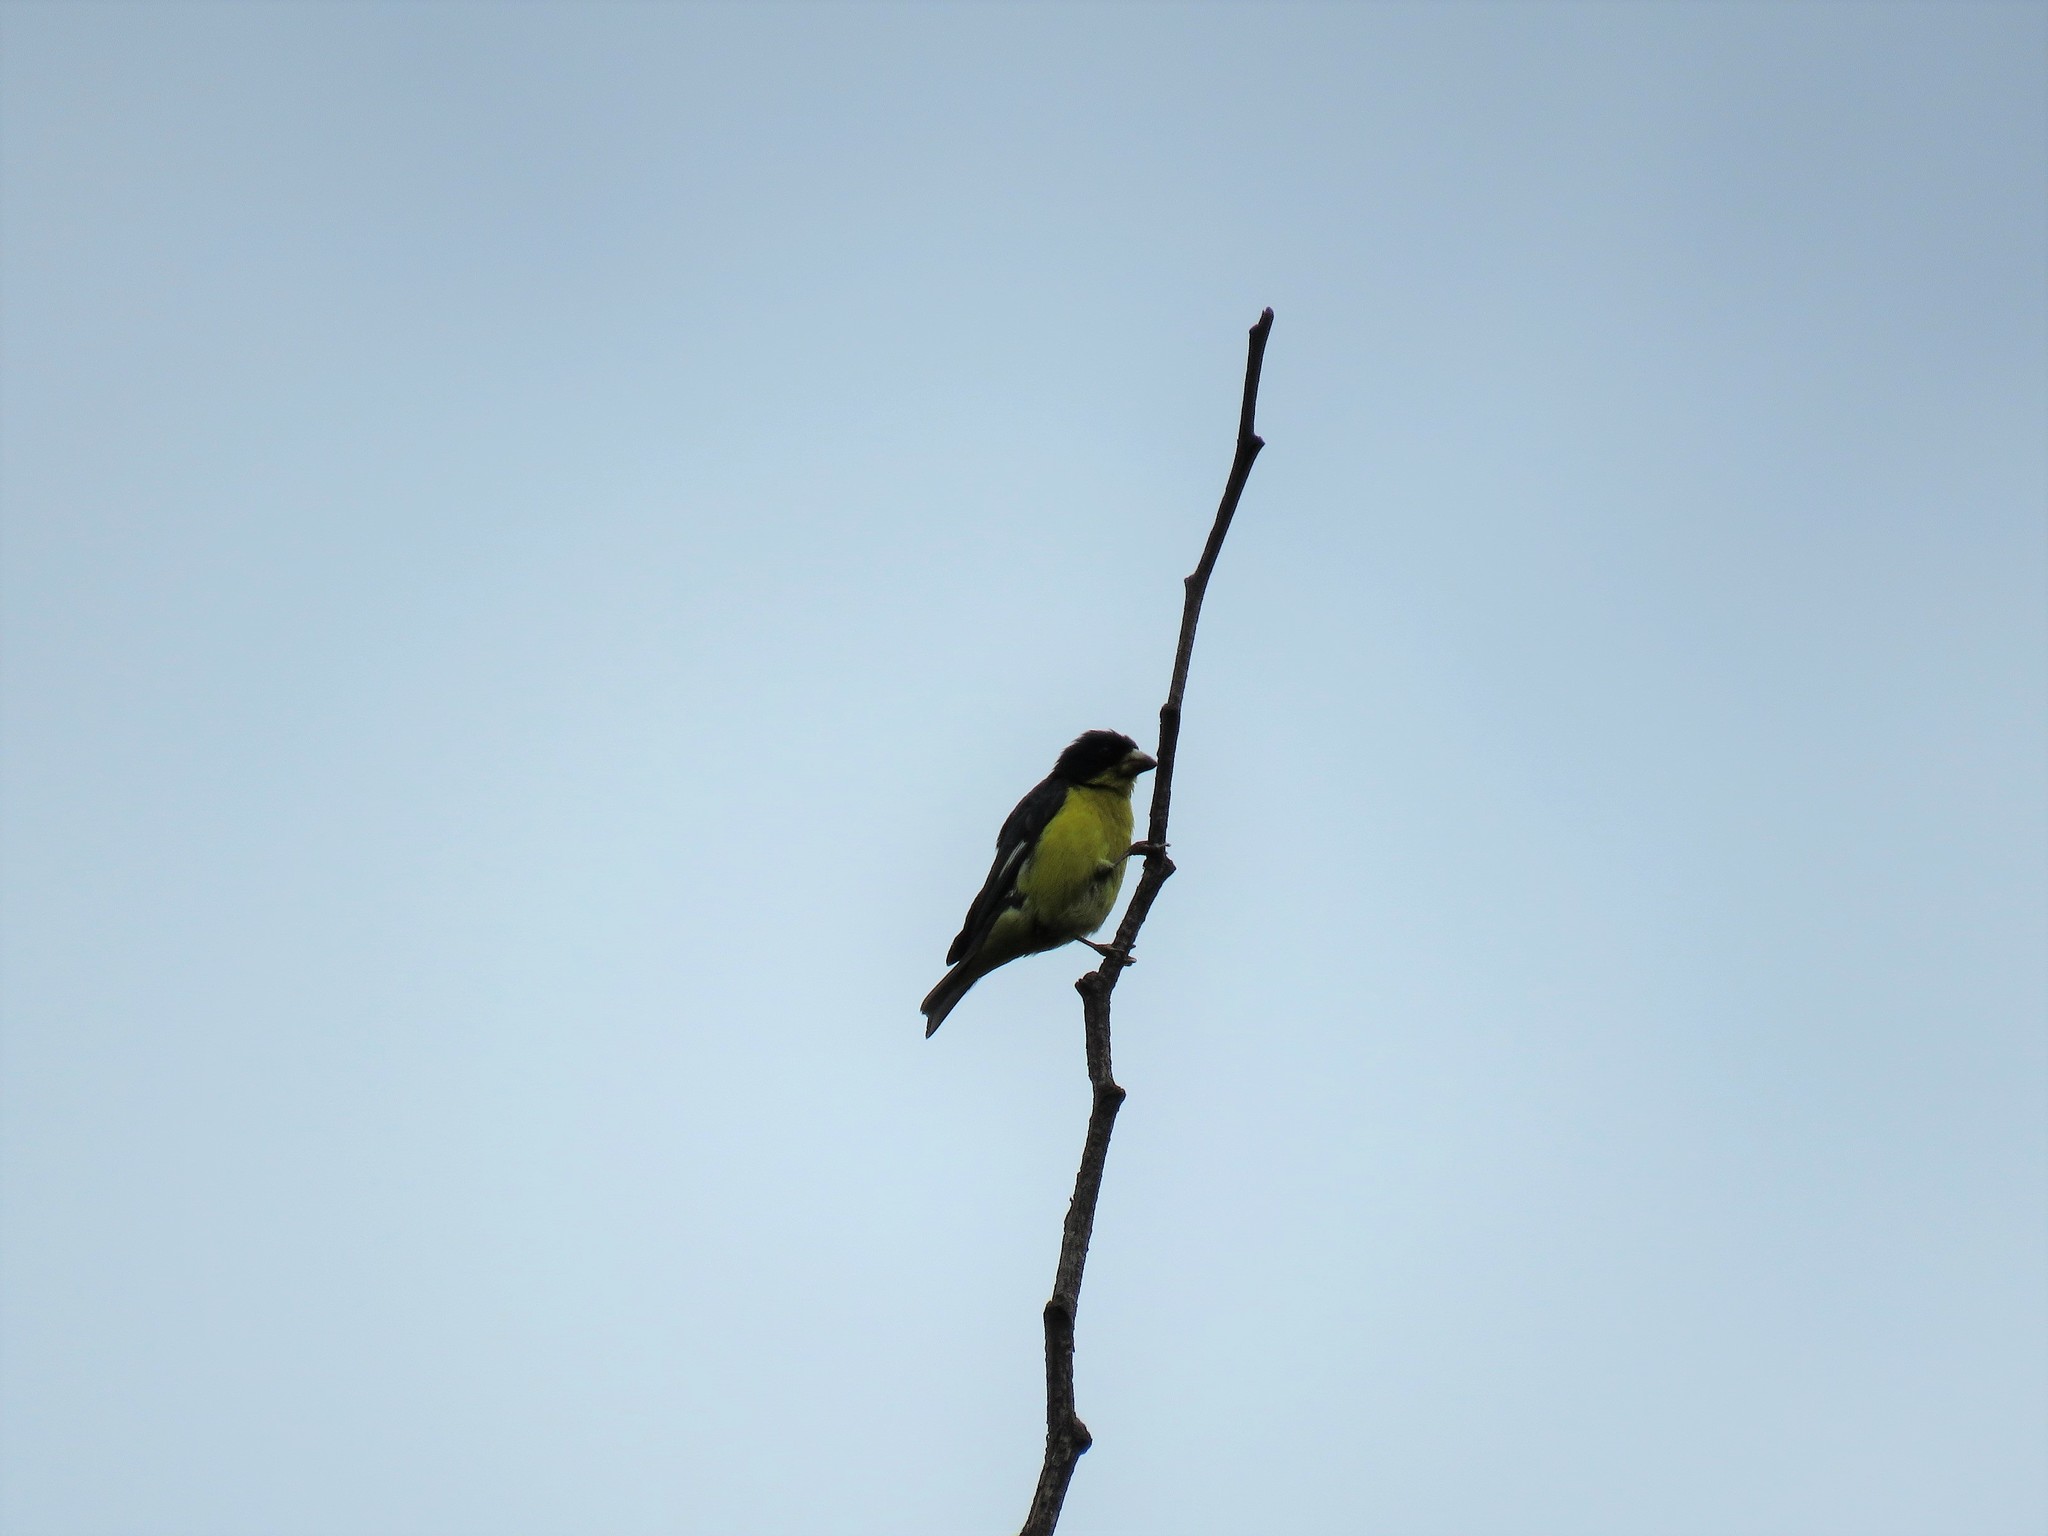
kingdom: Animalia
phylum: Chordata
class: Aves
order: Passeriformes
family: Fringillidae
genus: Spinus
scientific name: Spinus psaltria
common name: Lesser goldfinch
